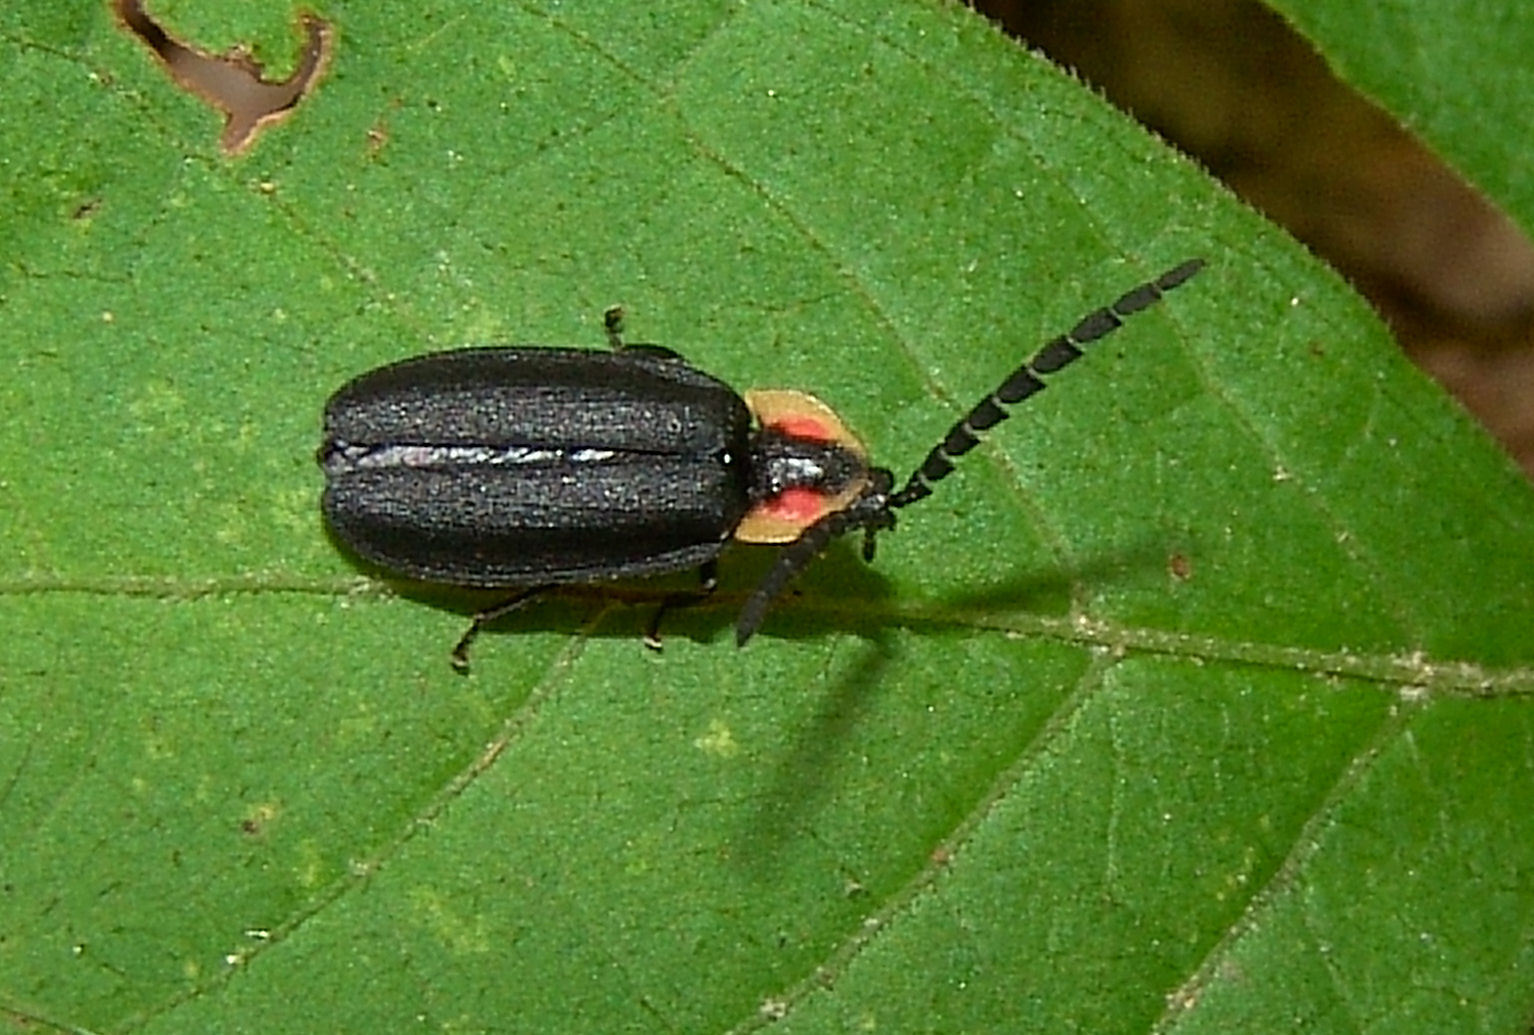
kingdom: Animalia
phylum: Arthropoda
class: Insecta
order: Coleoptera
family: Lampyridae
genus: Lucidota
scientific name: Lucidota atra
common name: Black firefly
